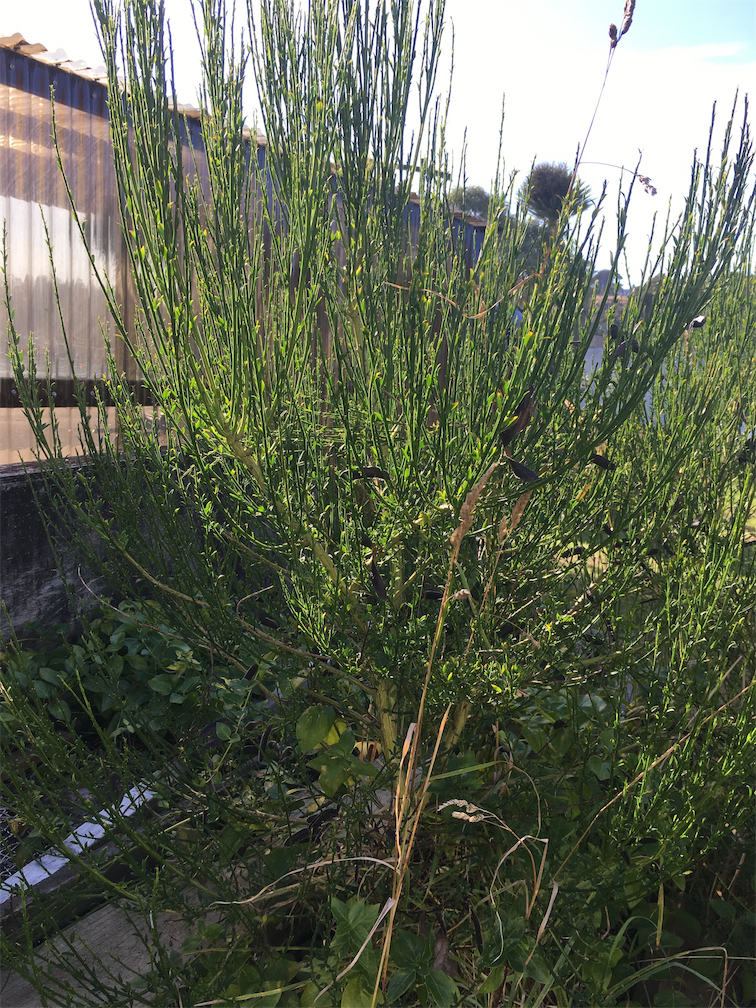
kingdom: Plantae
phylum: Tracheophyta
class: Magnoliopsida
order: Fabales
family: Fabaceae
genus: Cytisus
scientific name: Cytisus scoparius
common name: Scotch broom
